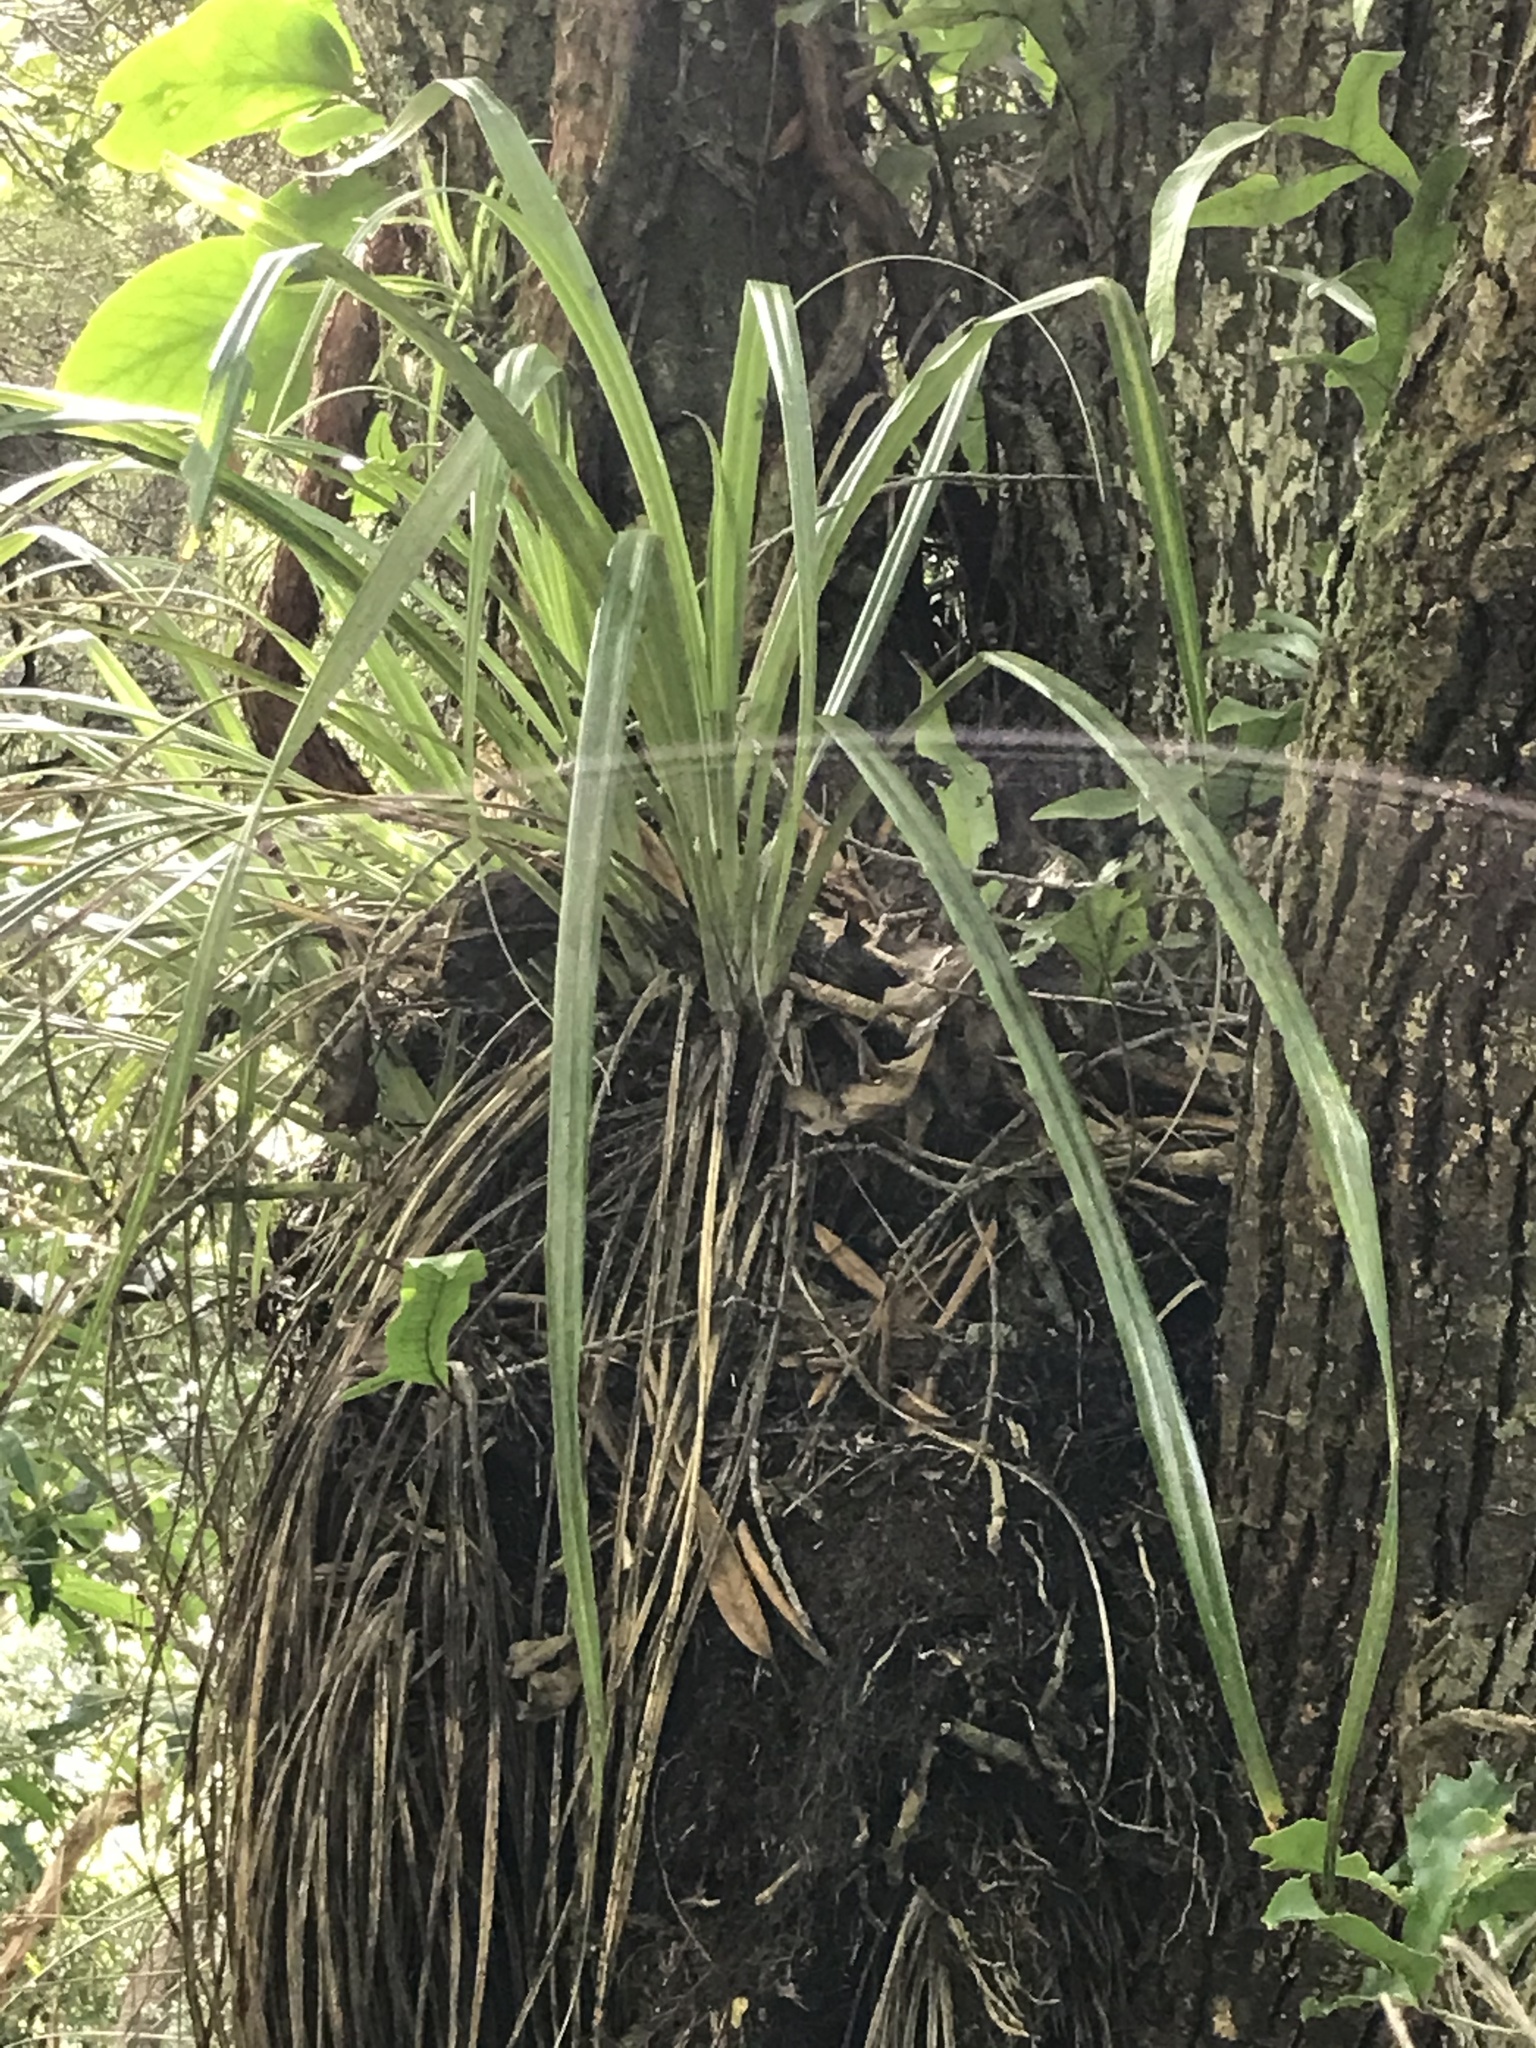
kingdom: Plantae
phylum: Tracheophyta
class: Liliopsida
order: Asparagales
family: Asteliaceae
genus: Astelia
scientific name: Astelia solandri
